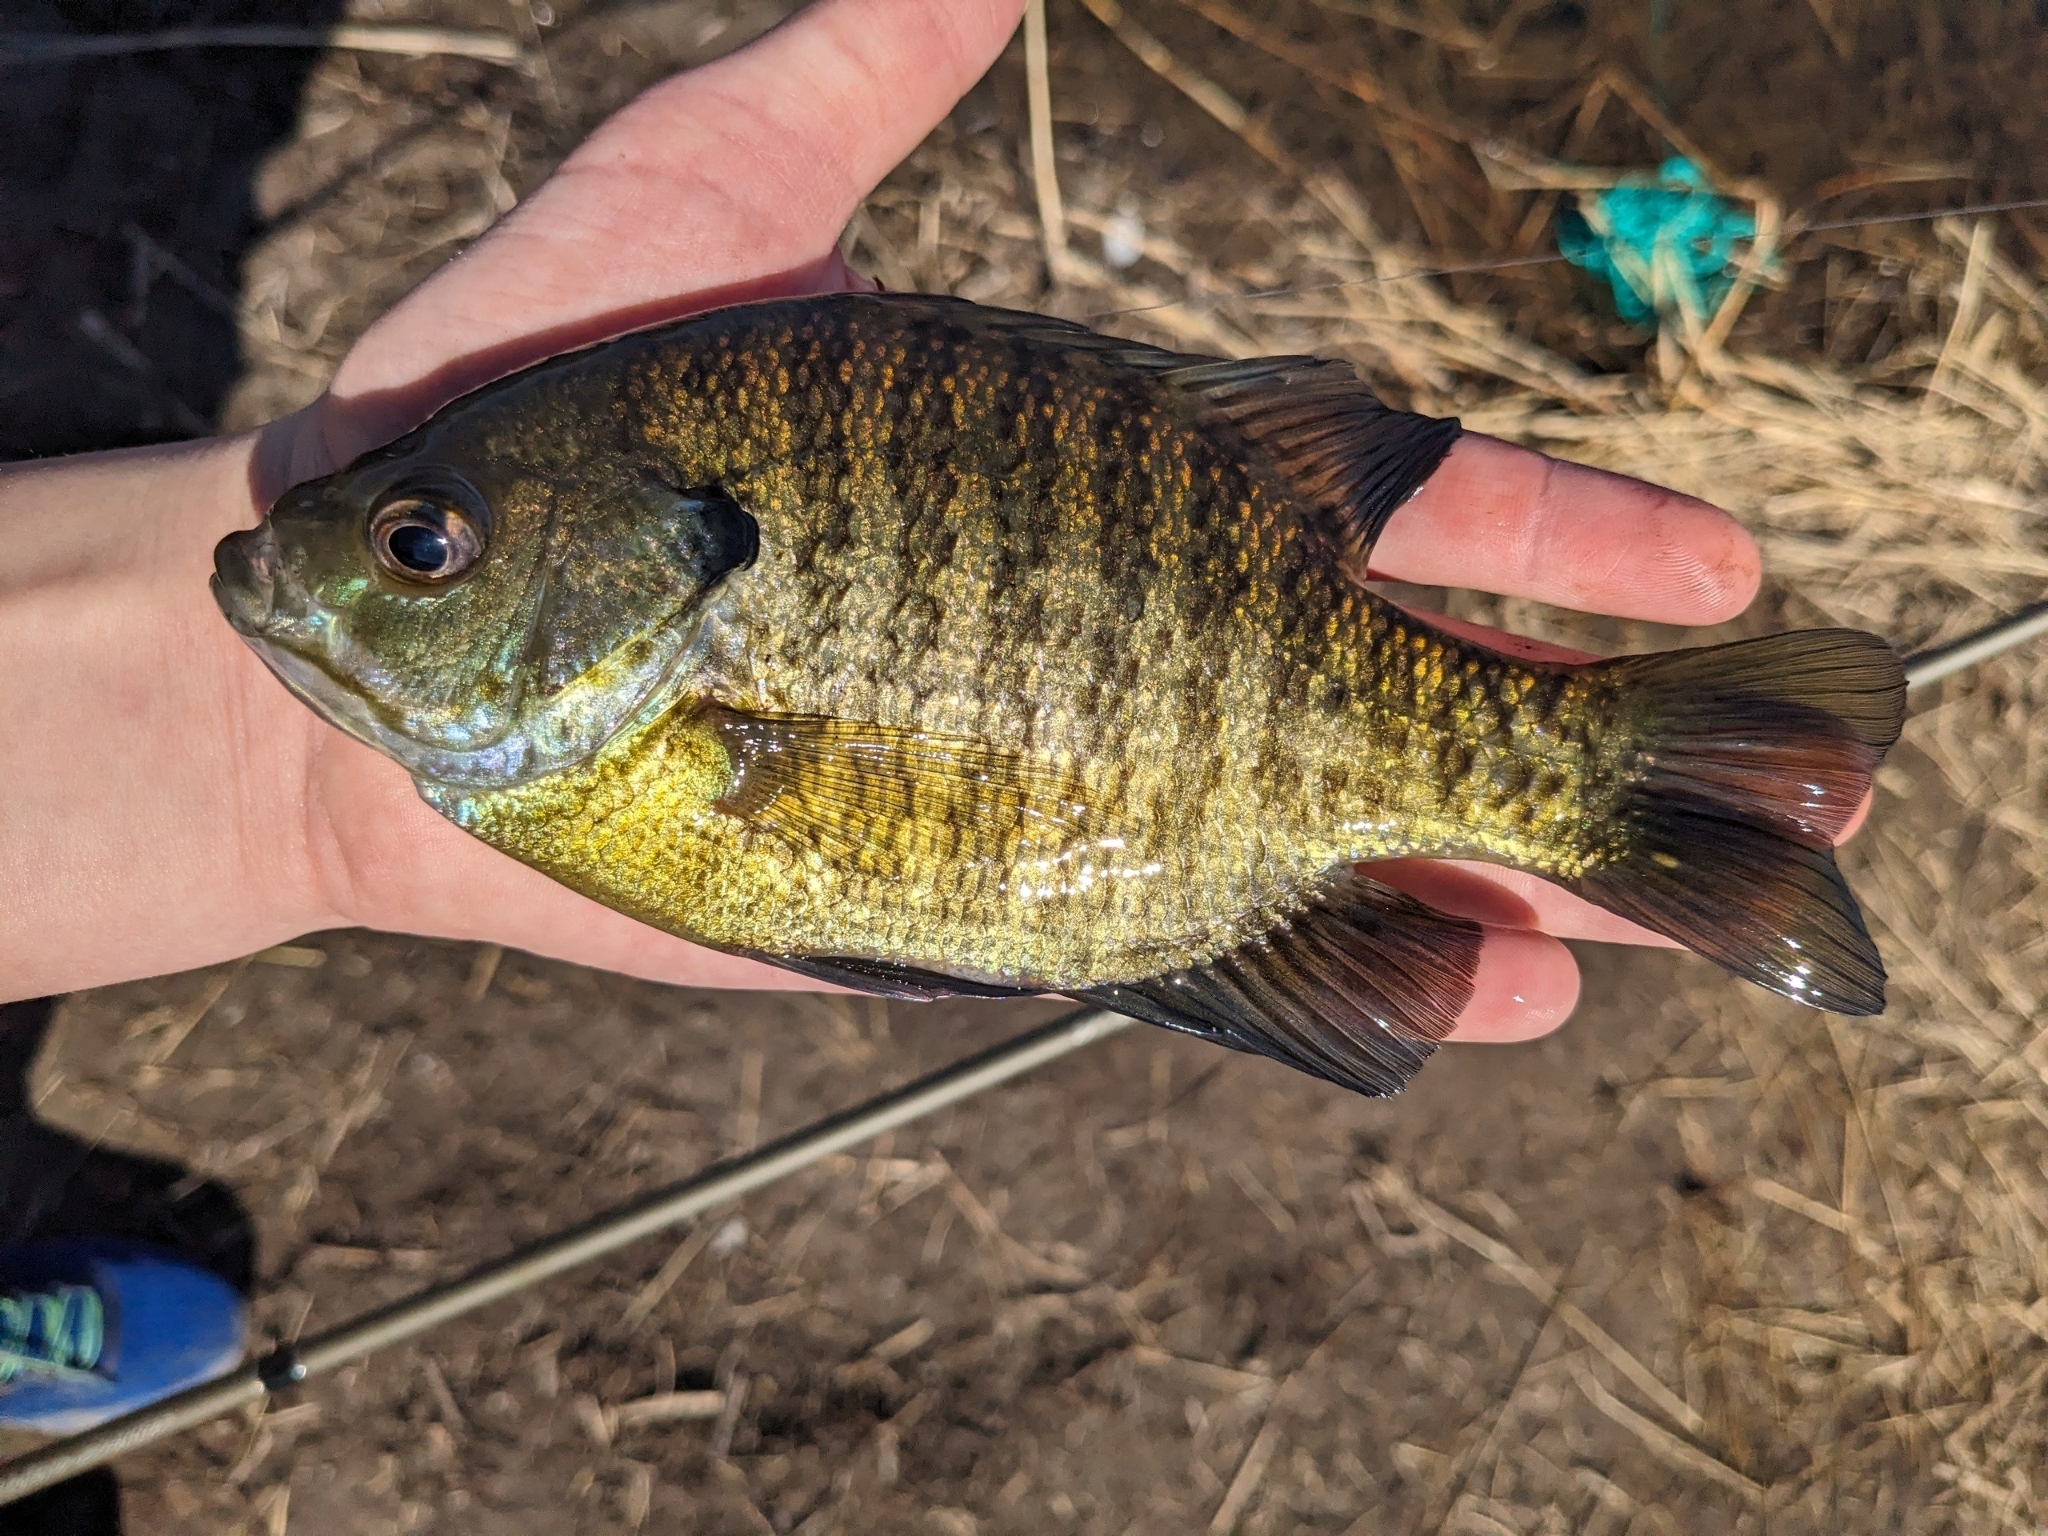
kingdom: Animalia
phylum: Chordata
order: Perciformes
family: Centrarchidae
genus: Lepomis
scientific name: Lepomis macrochirus
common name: Bluegill
